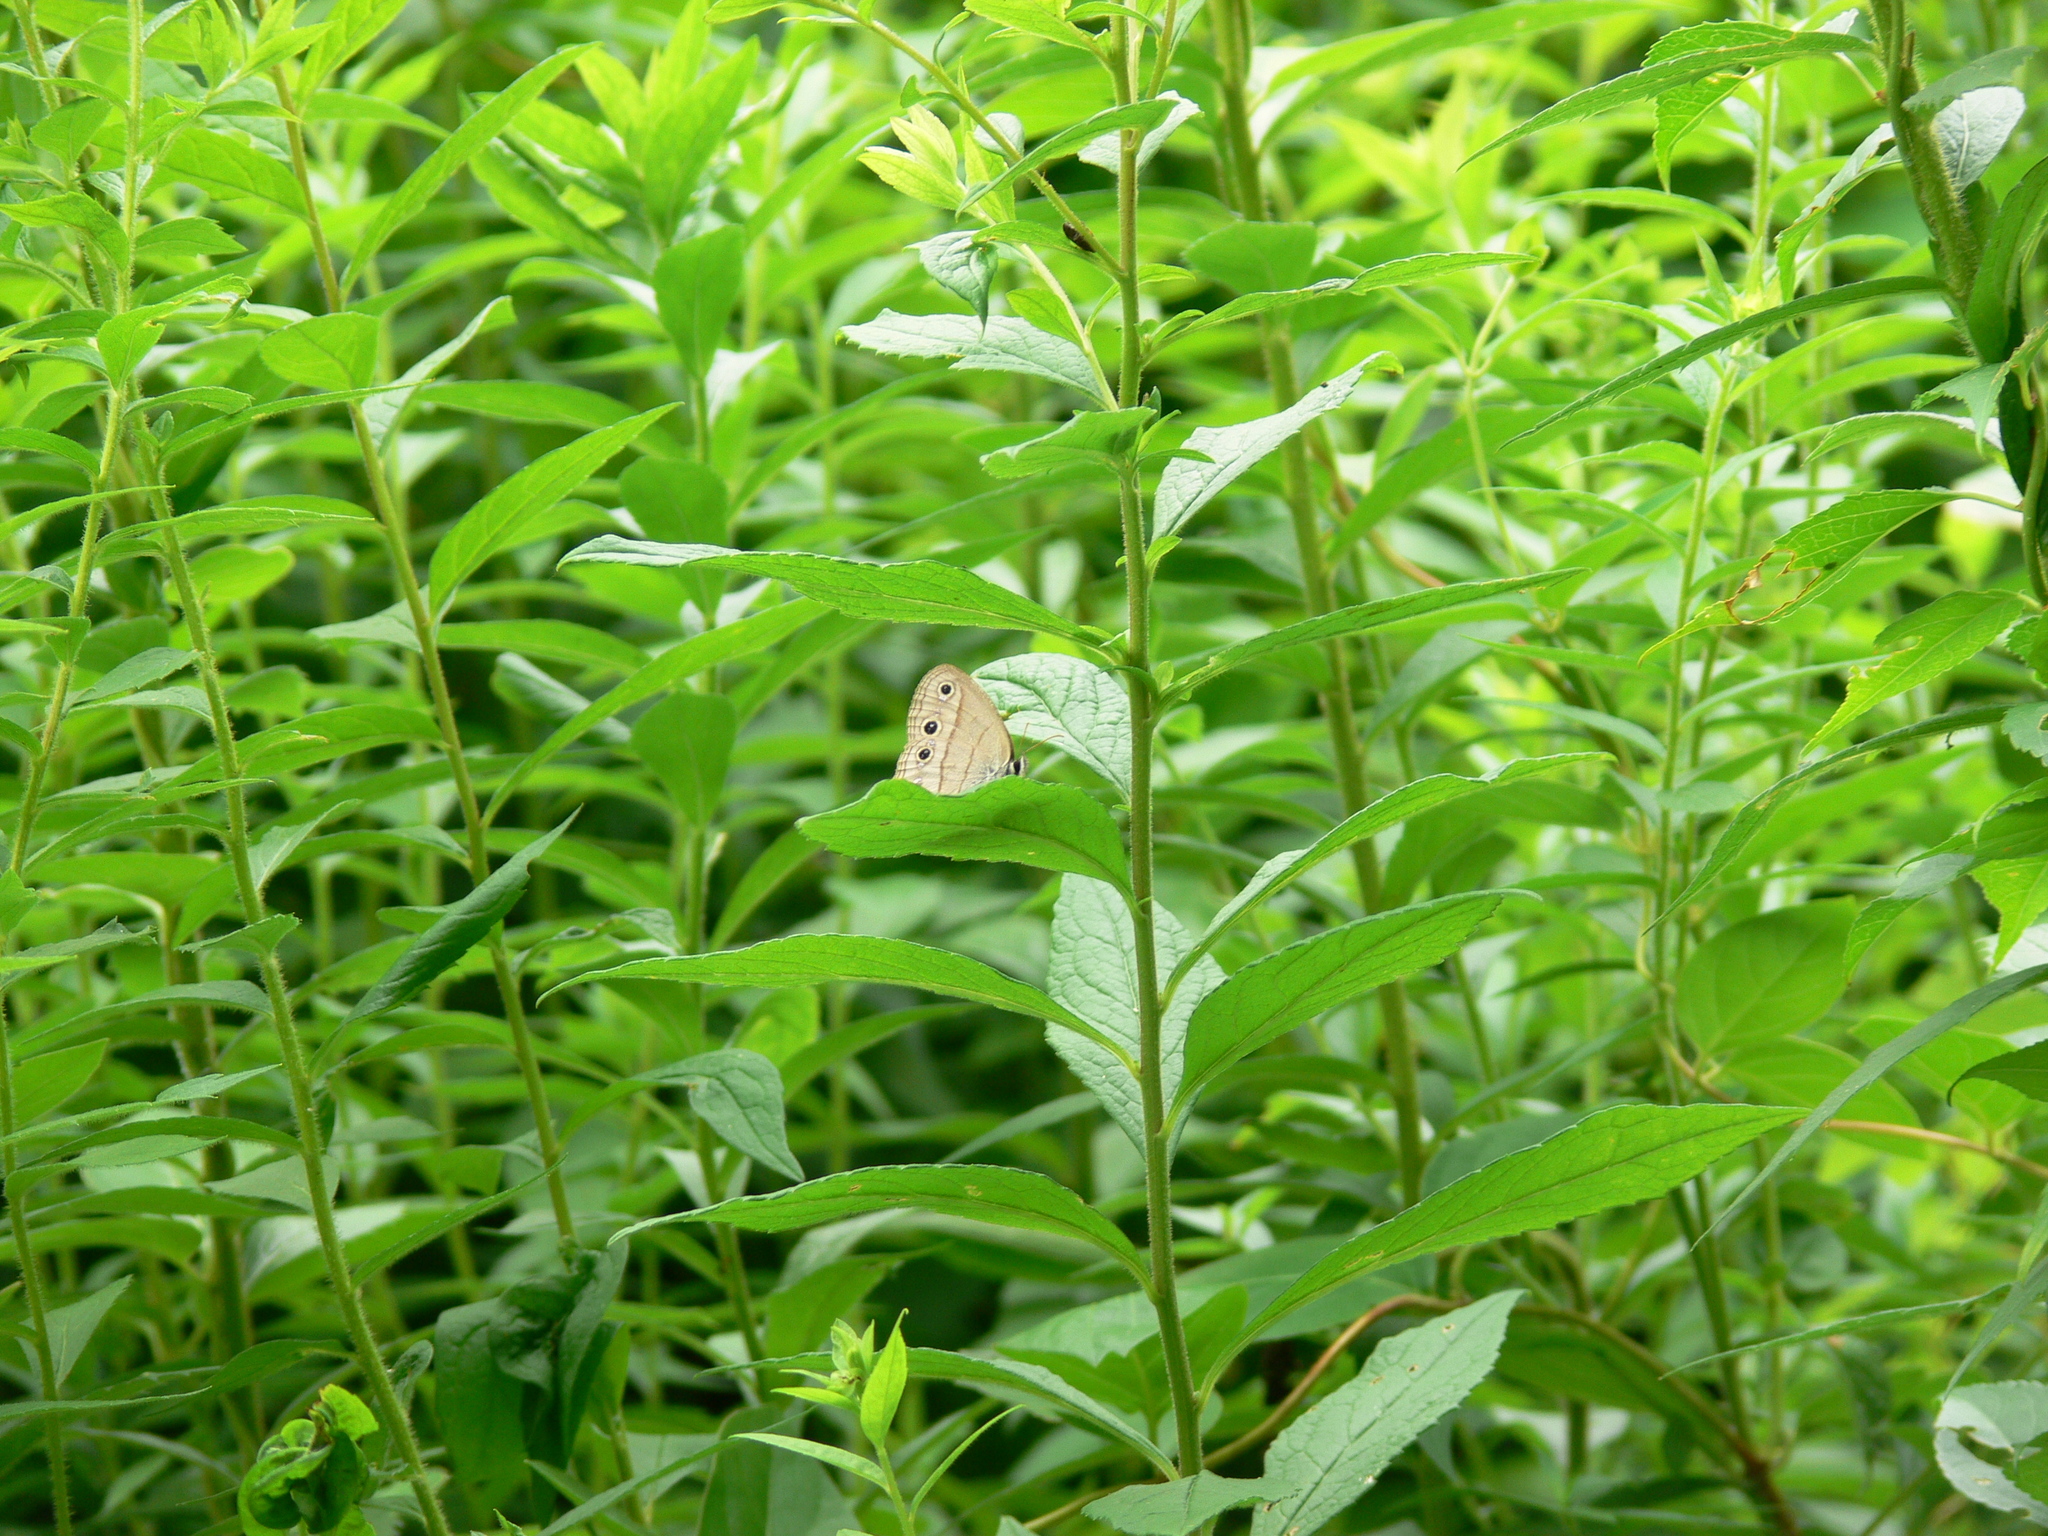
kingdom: Animalia
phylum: Arthropoda
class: Insecta
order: Lepidoptera
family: Nymphalidae
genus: Euptychia
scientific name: Euptychia cymela
